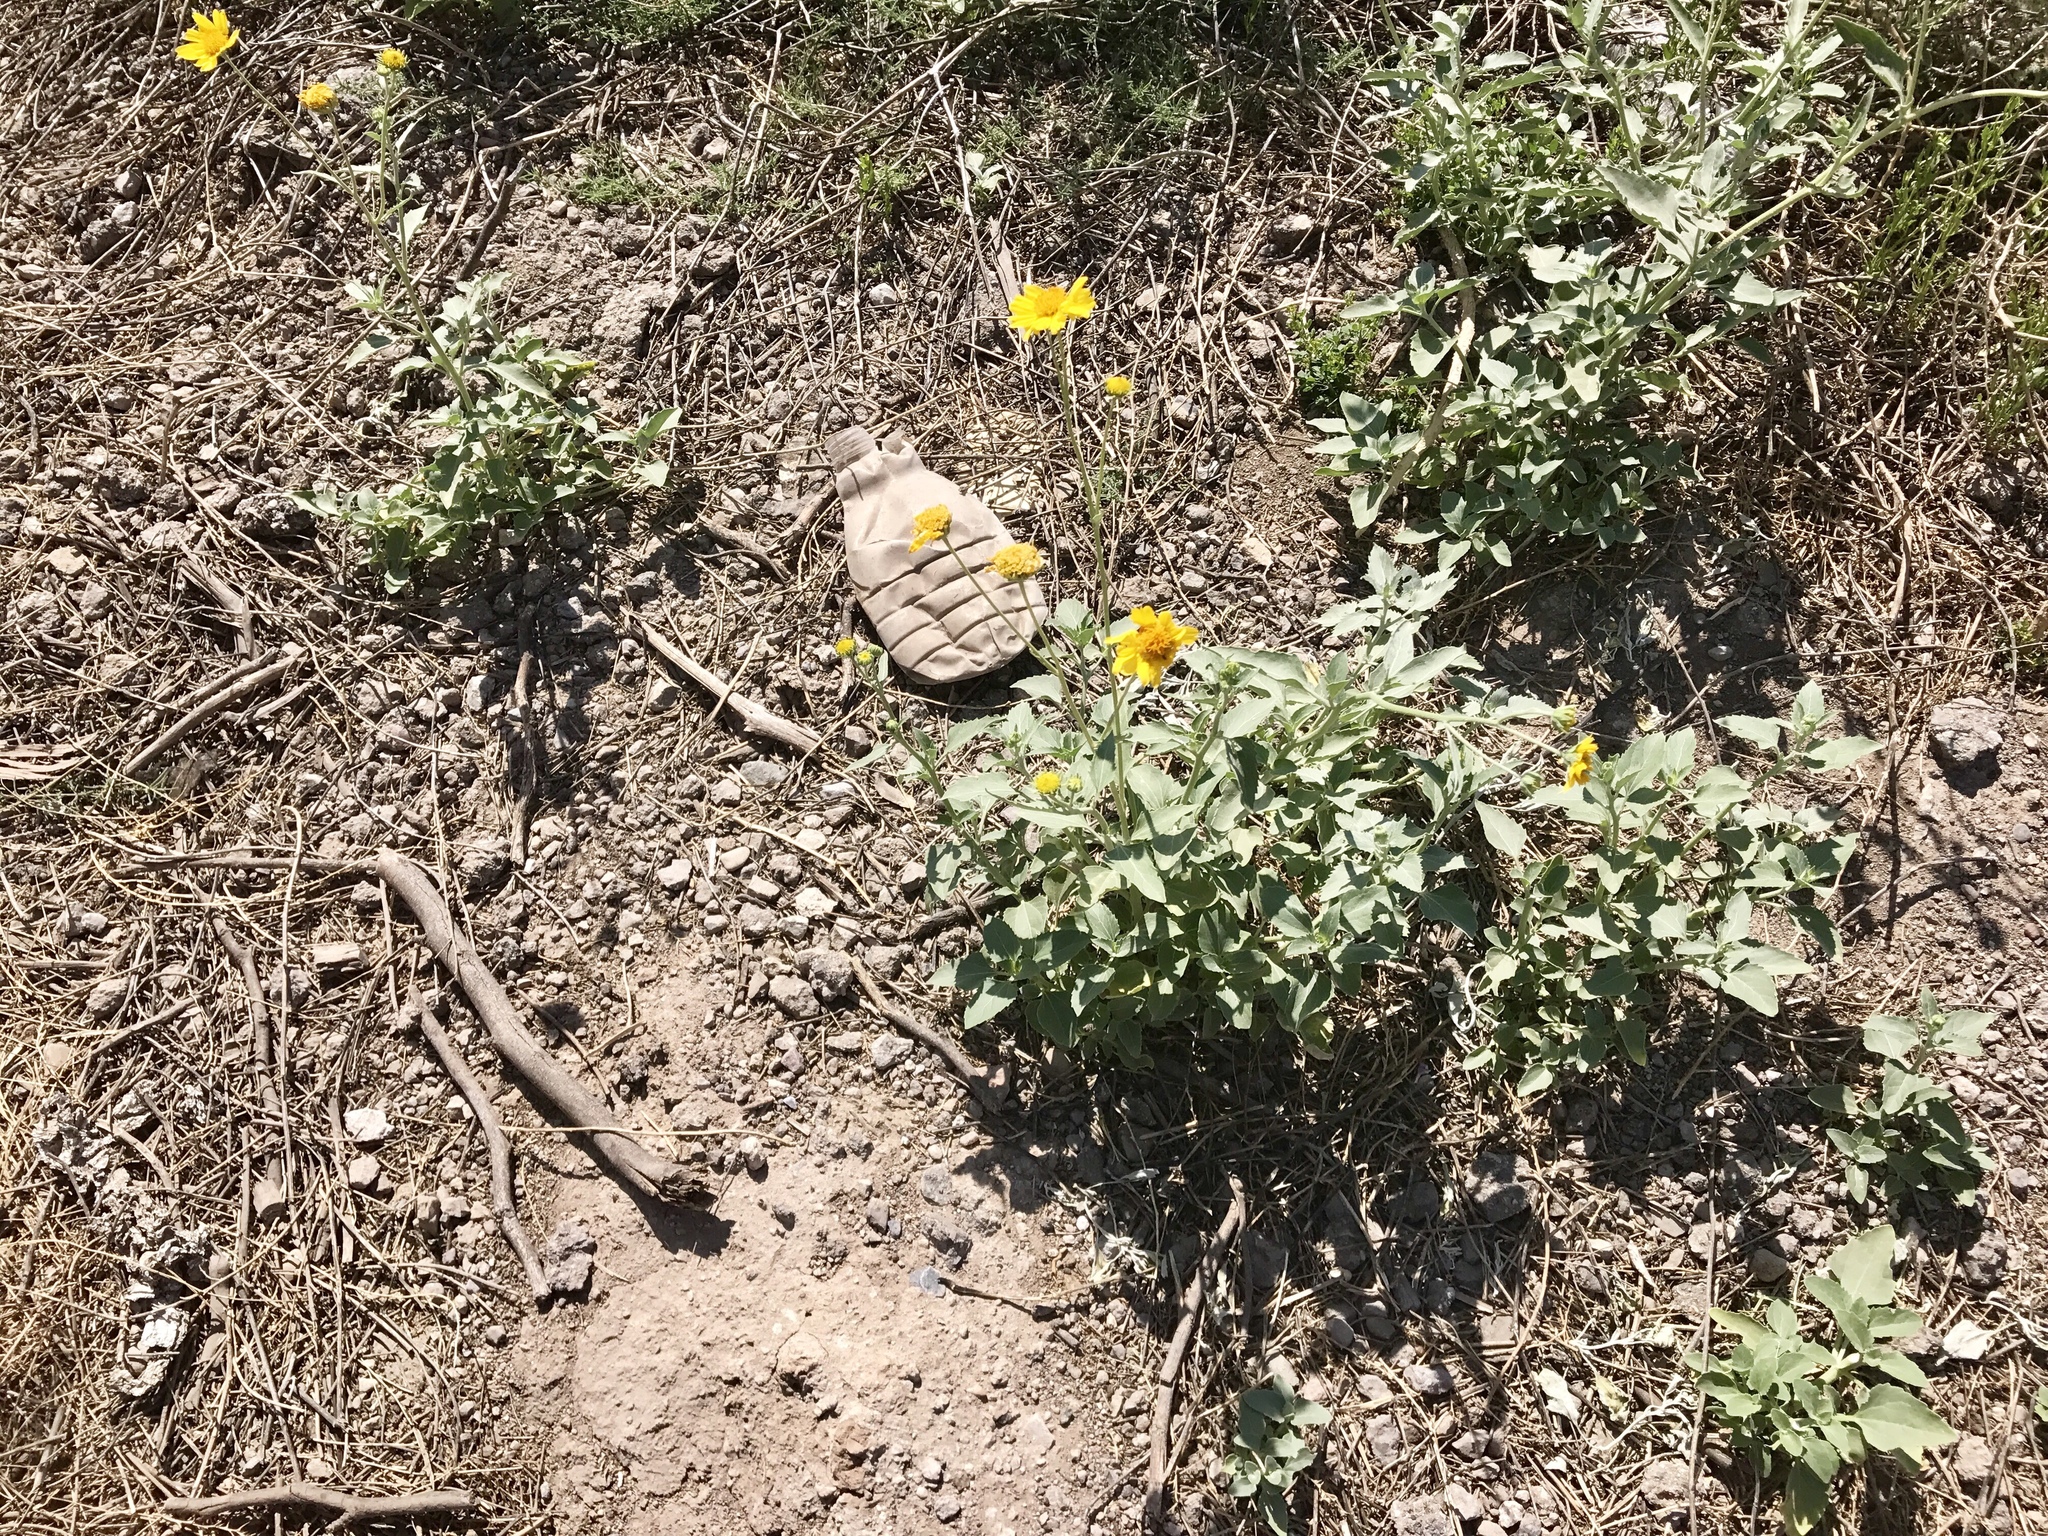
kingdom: Plantae
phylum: Tracheophyta
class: Magnoliopsida
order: Asterales
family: Asteraceae
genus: Encelia
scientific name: Encelia farinosa
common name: Brittlebush
